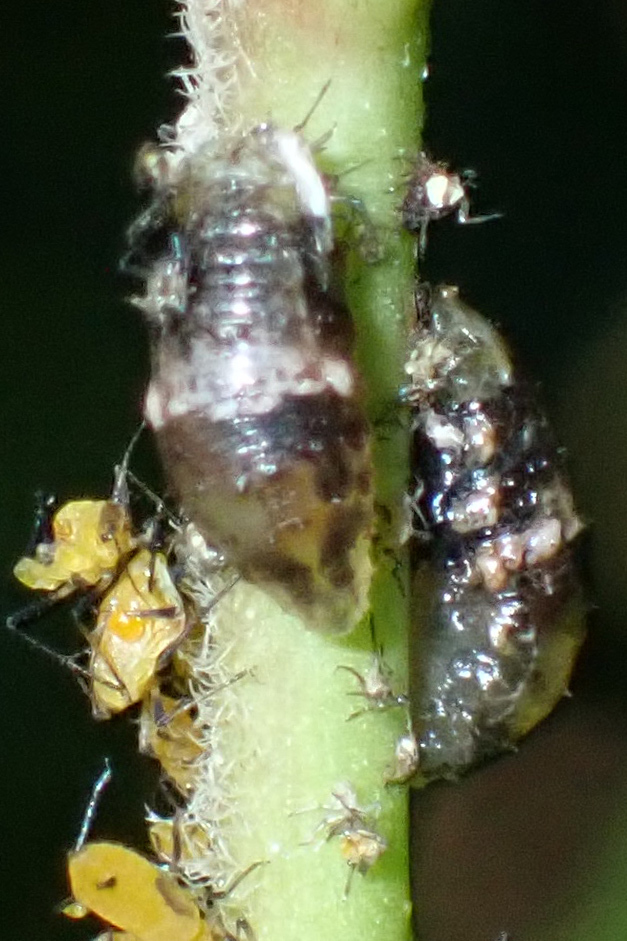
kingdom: Animalia
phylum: Arthropoda
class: Insecta
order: Diptera
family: Syrphidae
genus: Ocyptamus
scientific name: Ocyptamus fuscipennis
